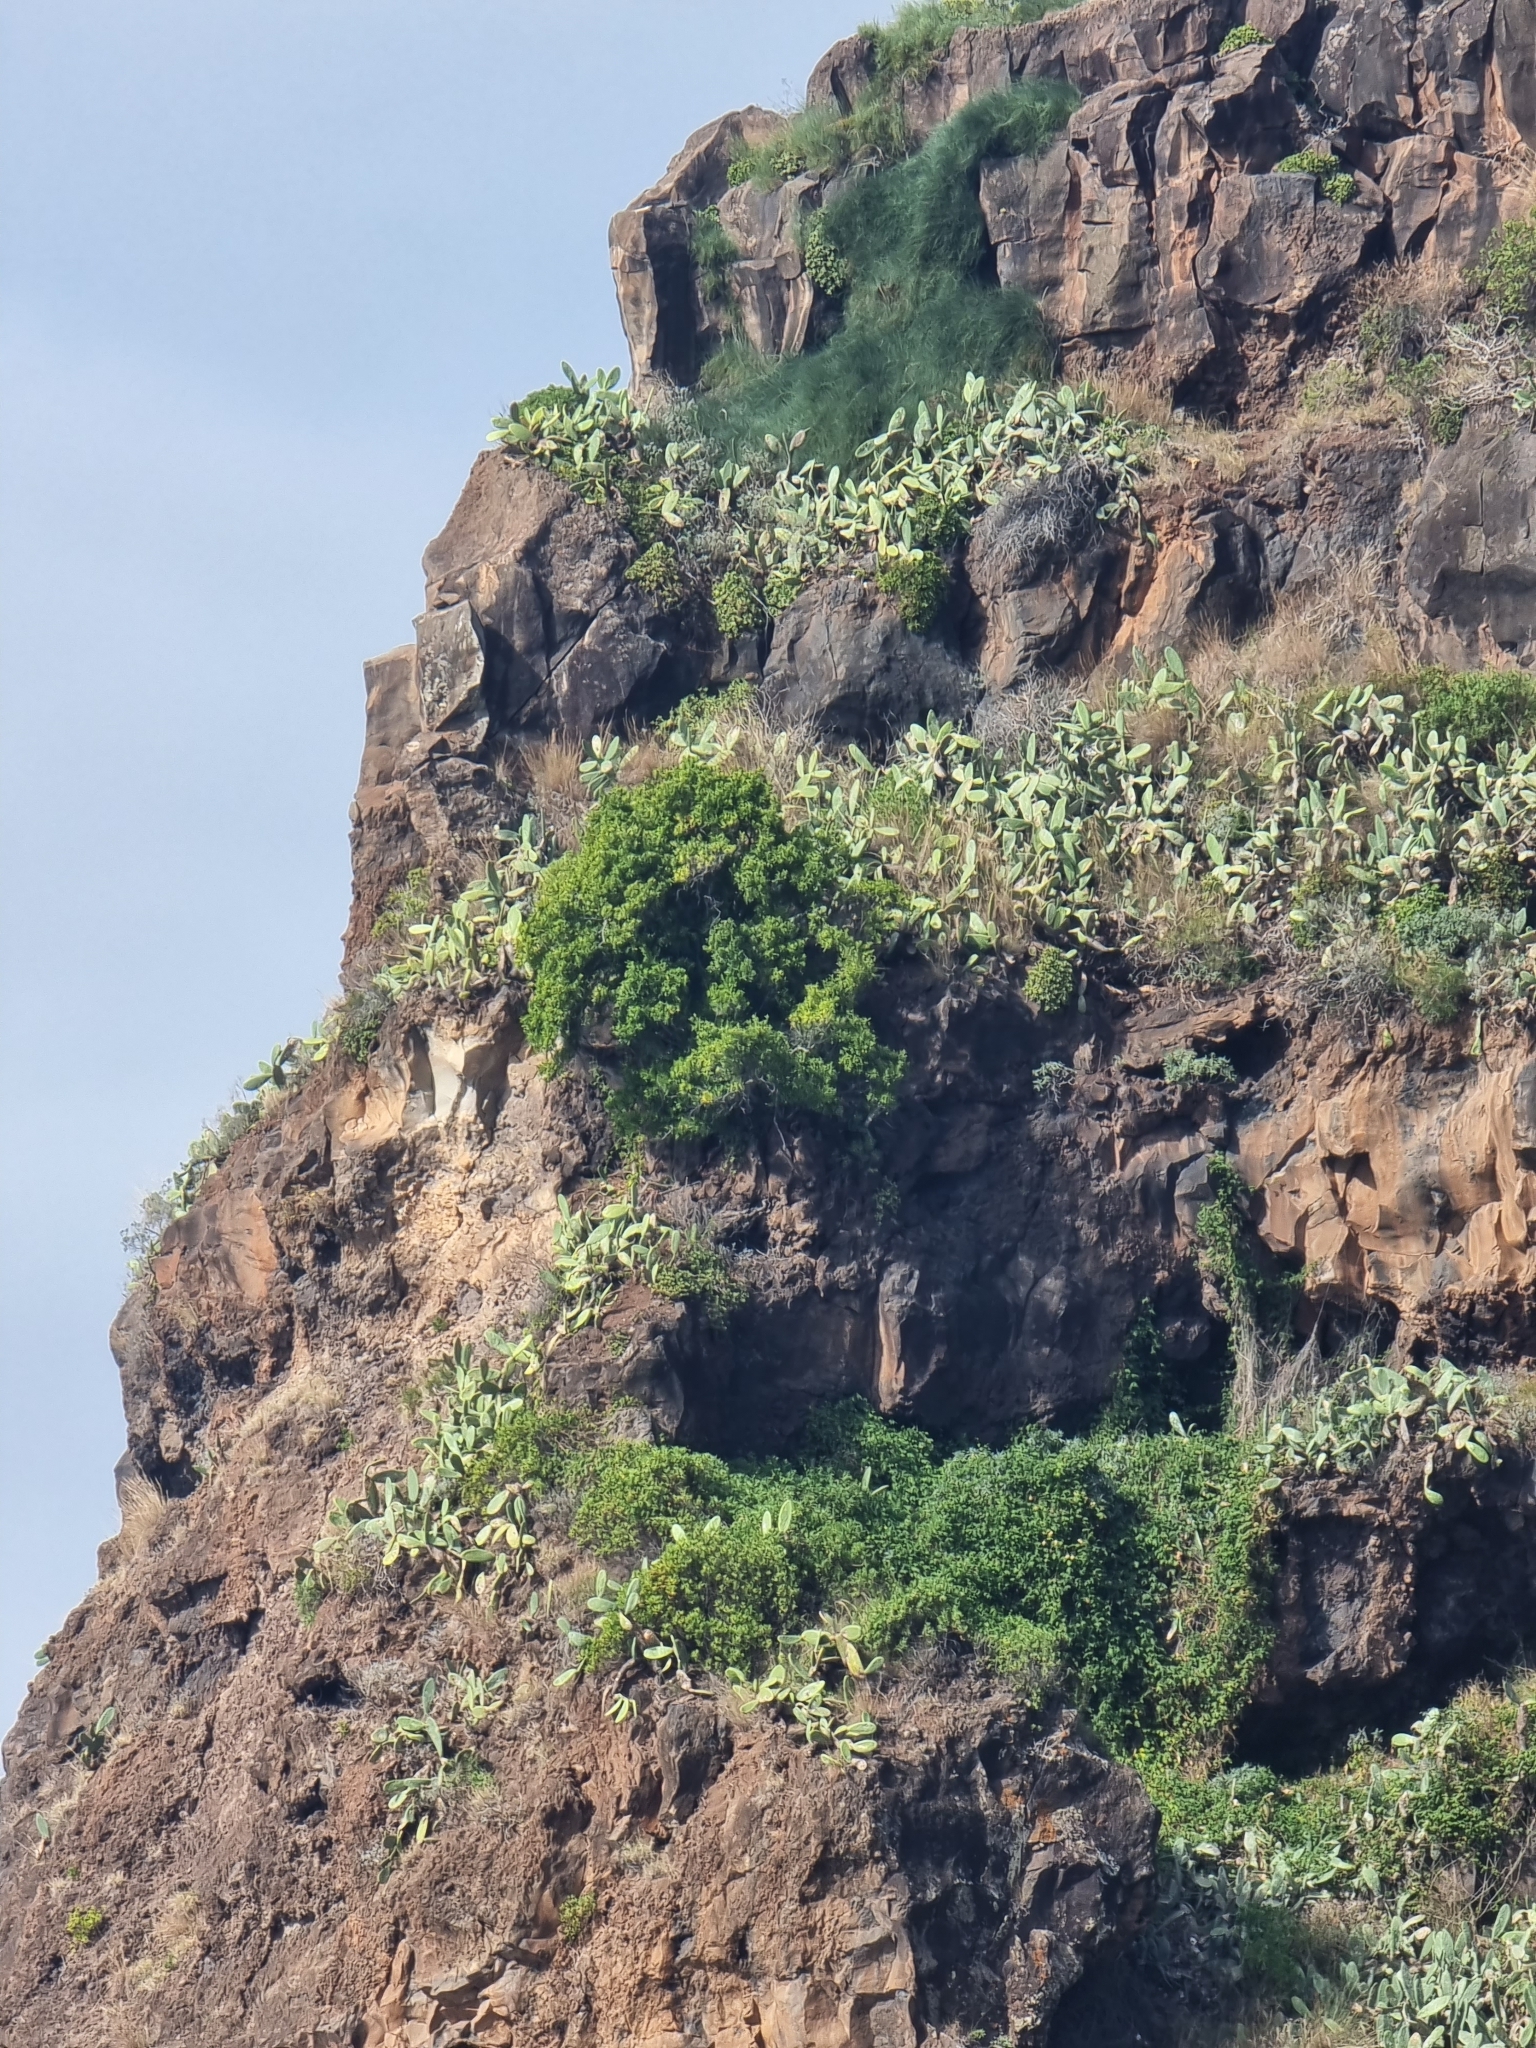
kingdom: Plantae
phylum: Tracheophyta
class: Magnoliopsida
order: Celastrales
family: Celastraceae
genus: Gymnosporia
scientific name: Gymnosporia dryandri
